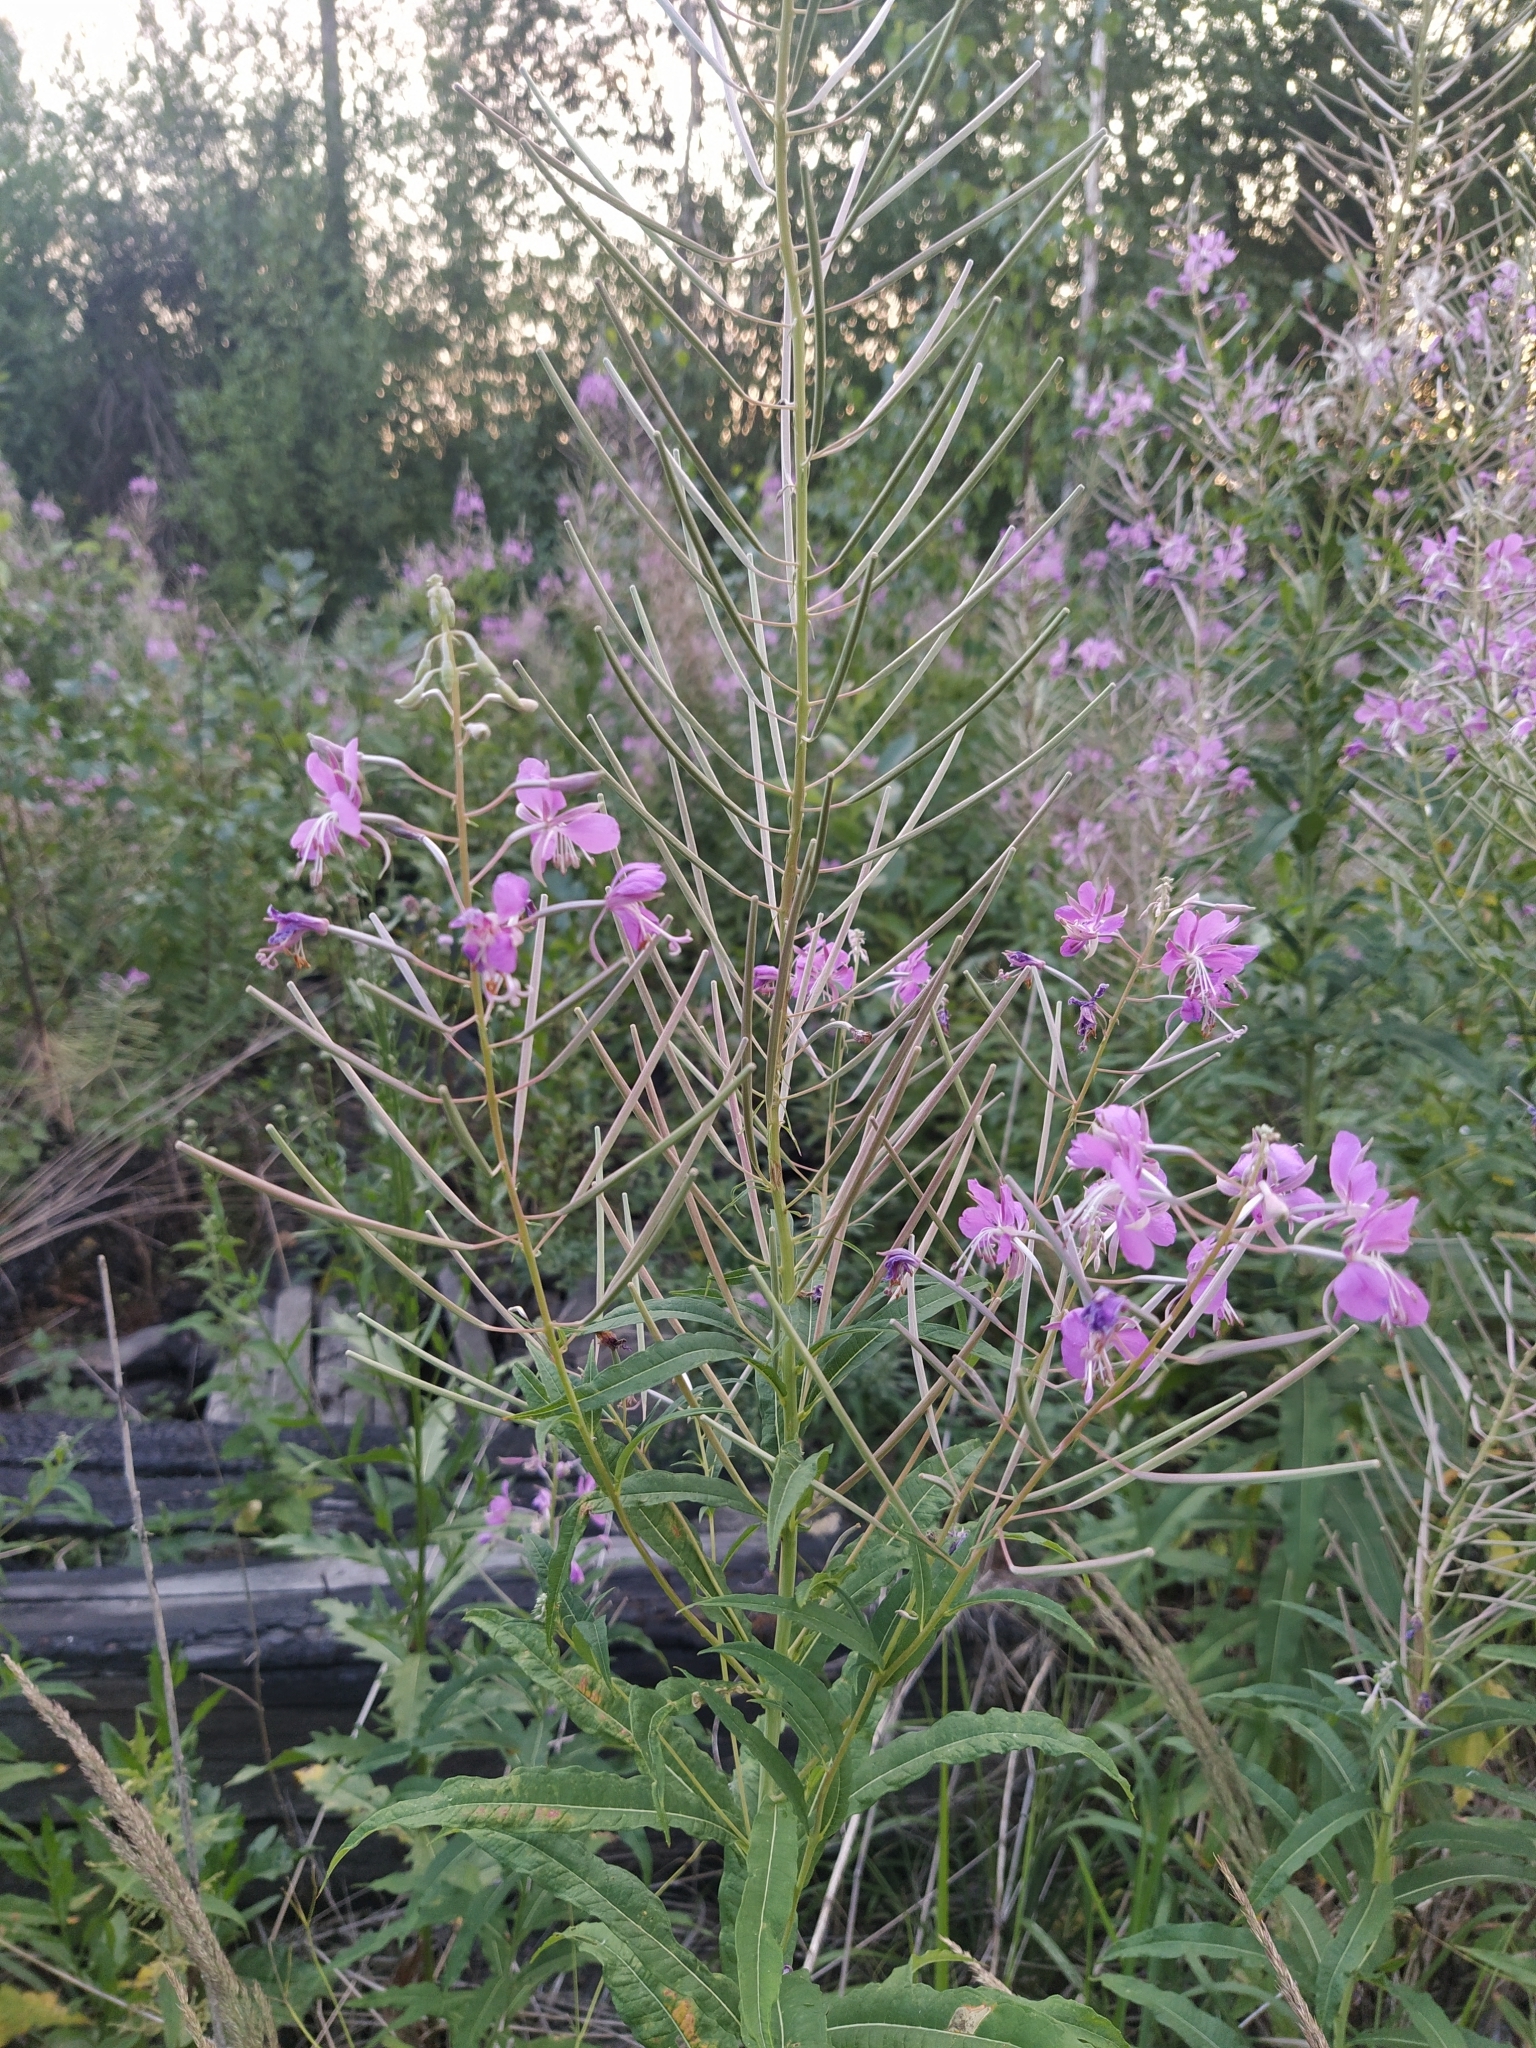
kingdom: Plantae
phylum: Tracheophyta
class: Magnoliopsida
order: Myrtales
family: Onagraceae
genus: Chamaenerion
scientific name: Chamaenerion angustifolium
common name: Fireweed
